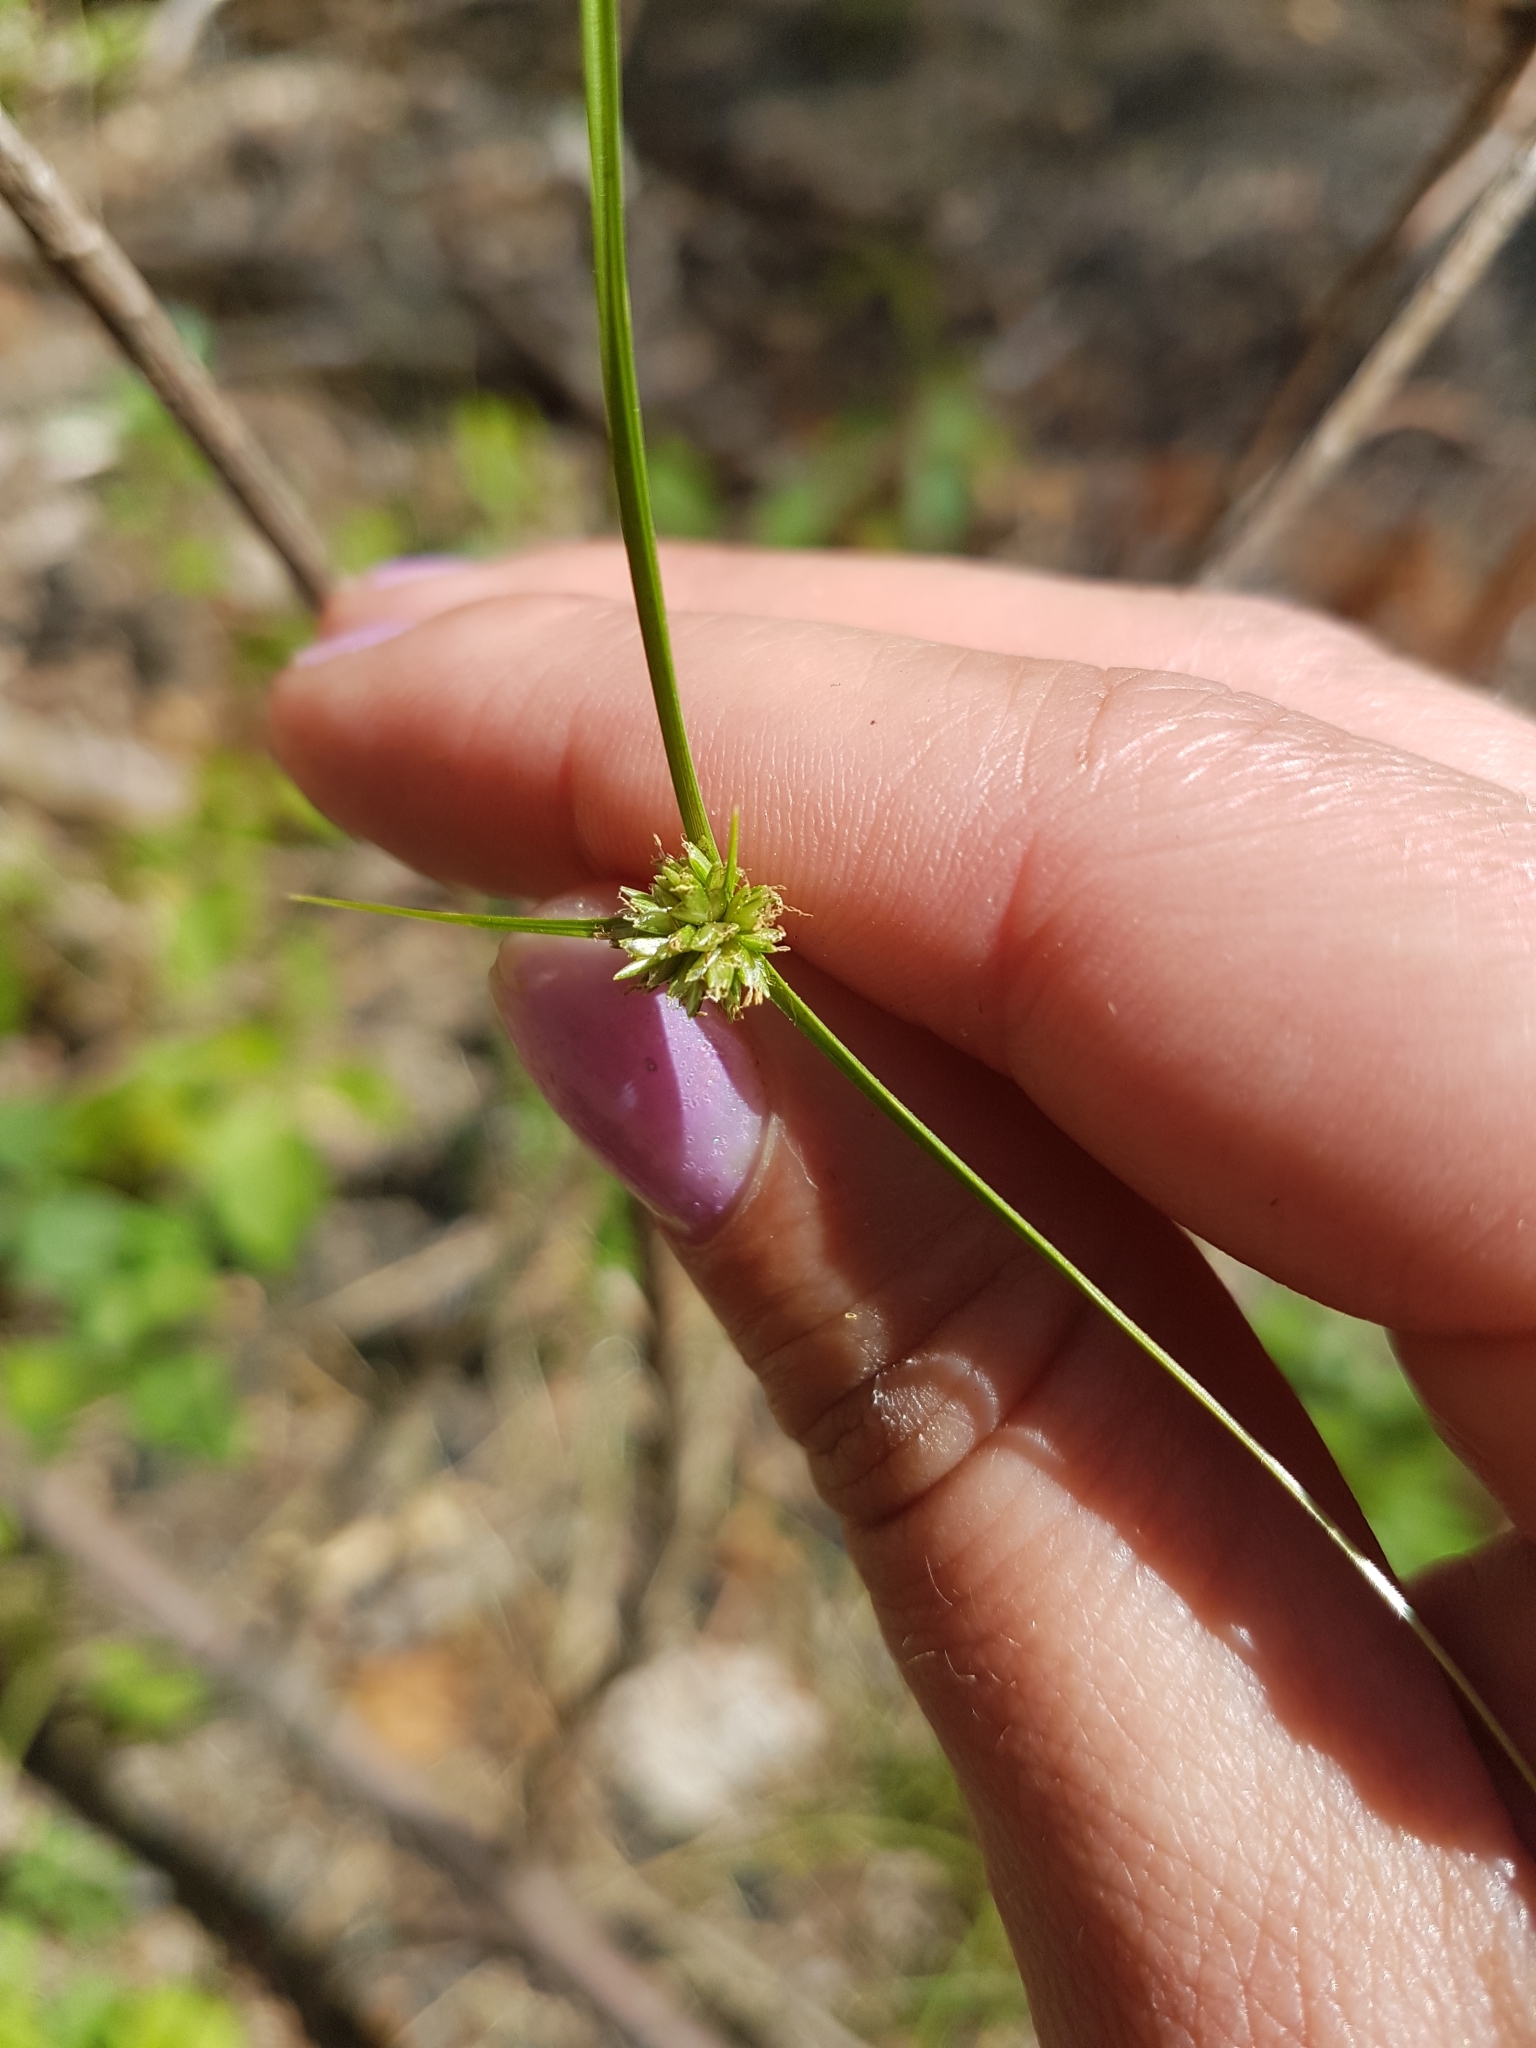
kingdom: Plantae
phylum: Tracheophyta
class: Liliopsida
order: Poales
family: Cyperaceae
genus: Cyperus
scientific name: Cyperus lupulinus
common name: Great plains flatsedge
